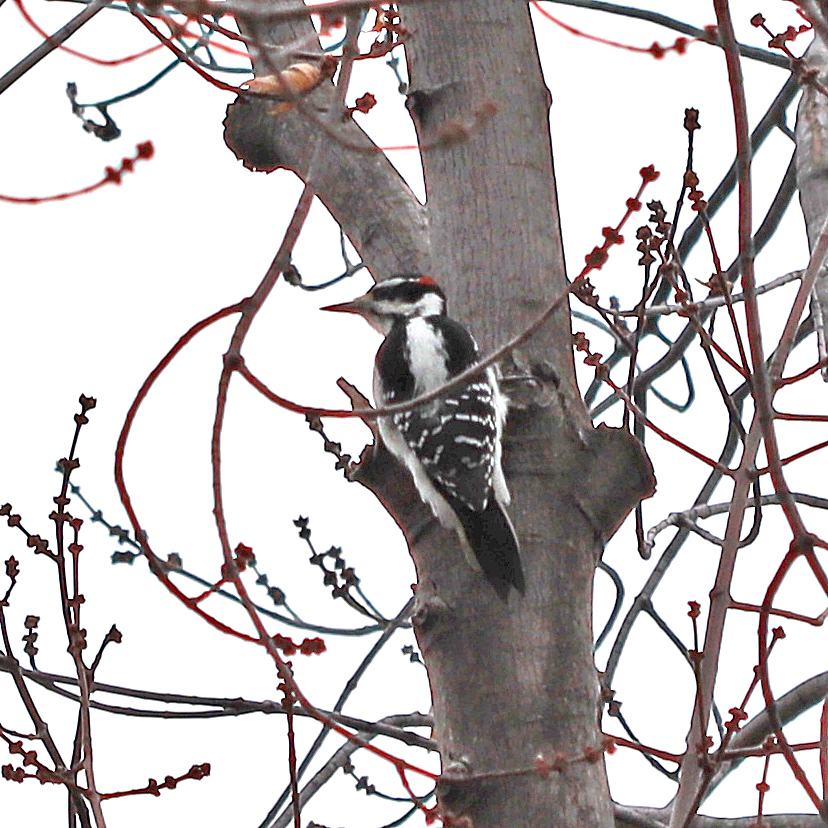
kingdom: Animalia
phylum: Chordata
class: Aves
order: Piciformes
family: Picidae
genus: Leuconotopicus
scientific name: Leuconotopicus villosus
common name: Hairy woodpecker
